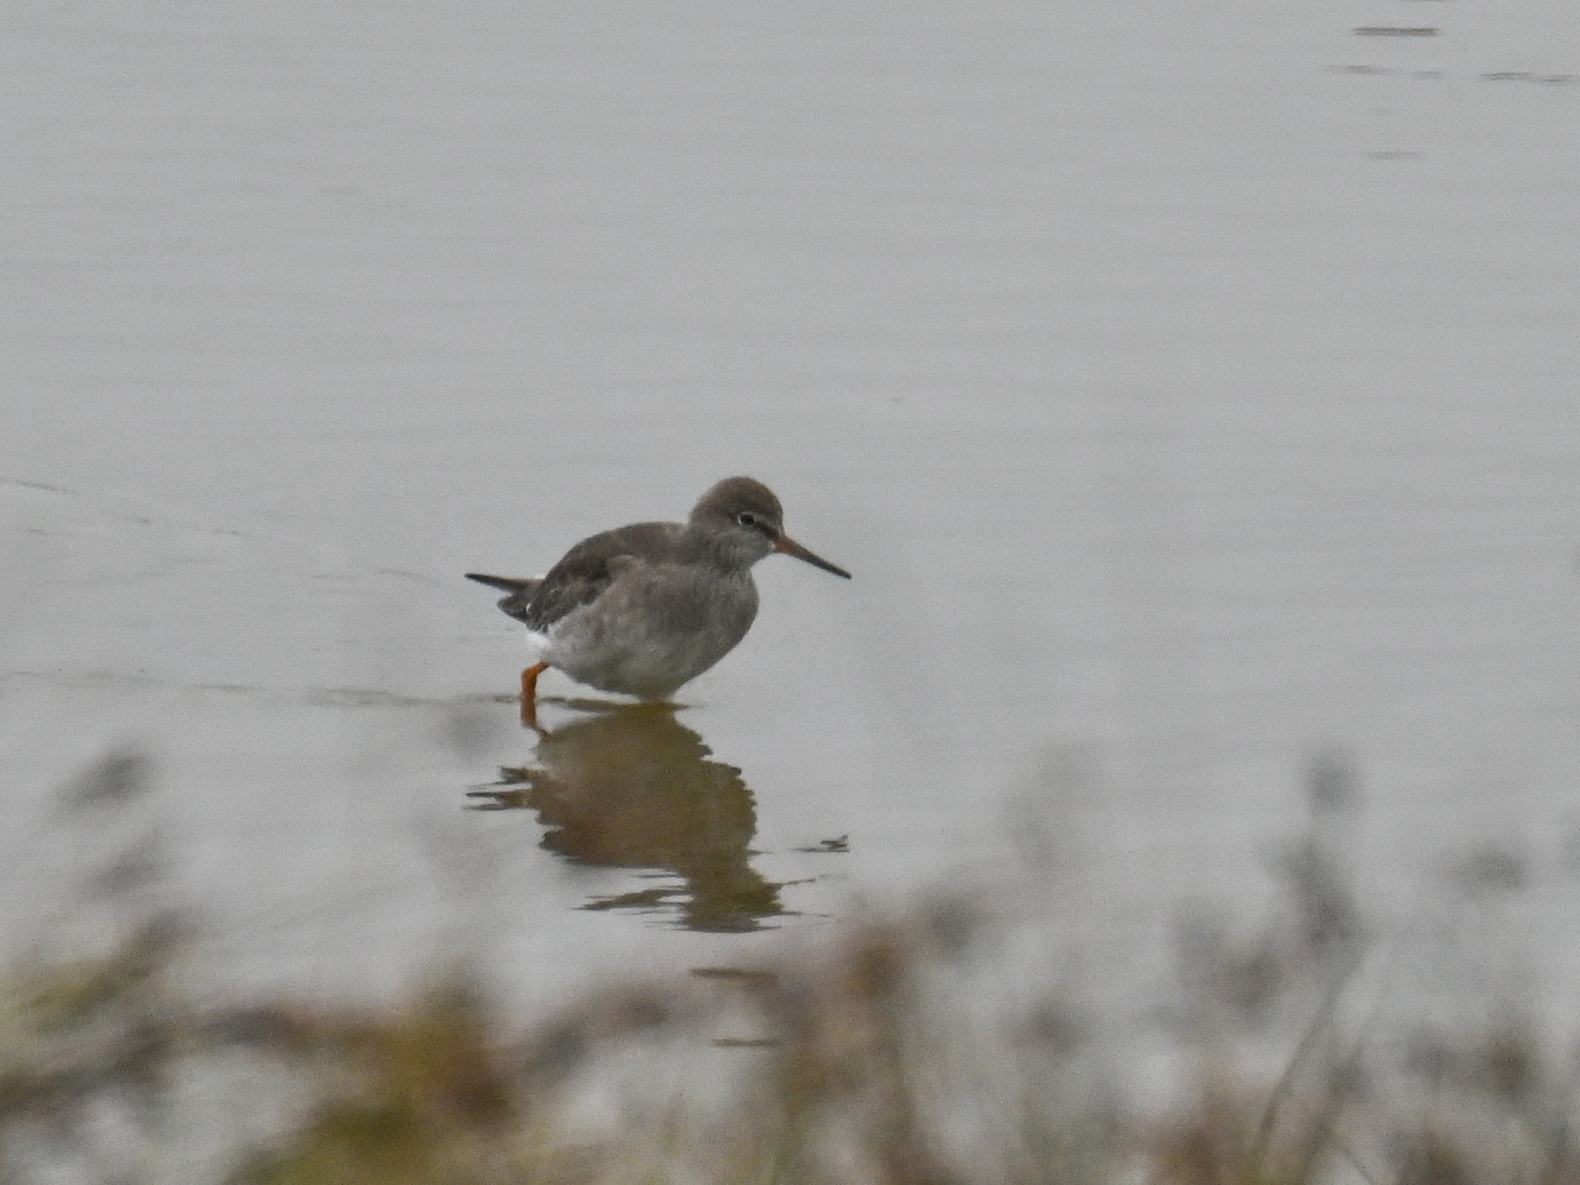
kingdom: Animalia
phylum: Chordata
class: Aves
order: Charadriiformes
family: Scolopacidae
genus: Tringa
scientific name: Tringa totanus
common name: Common redshank
